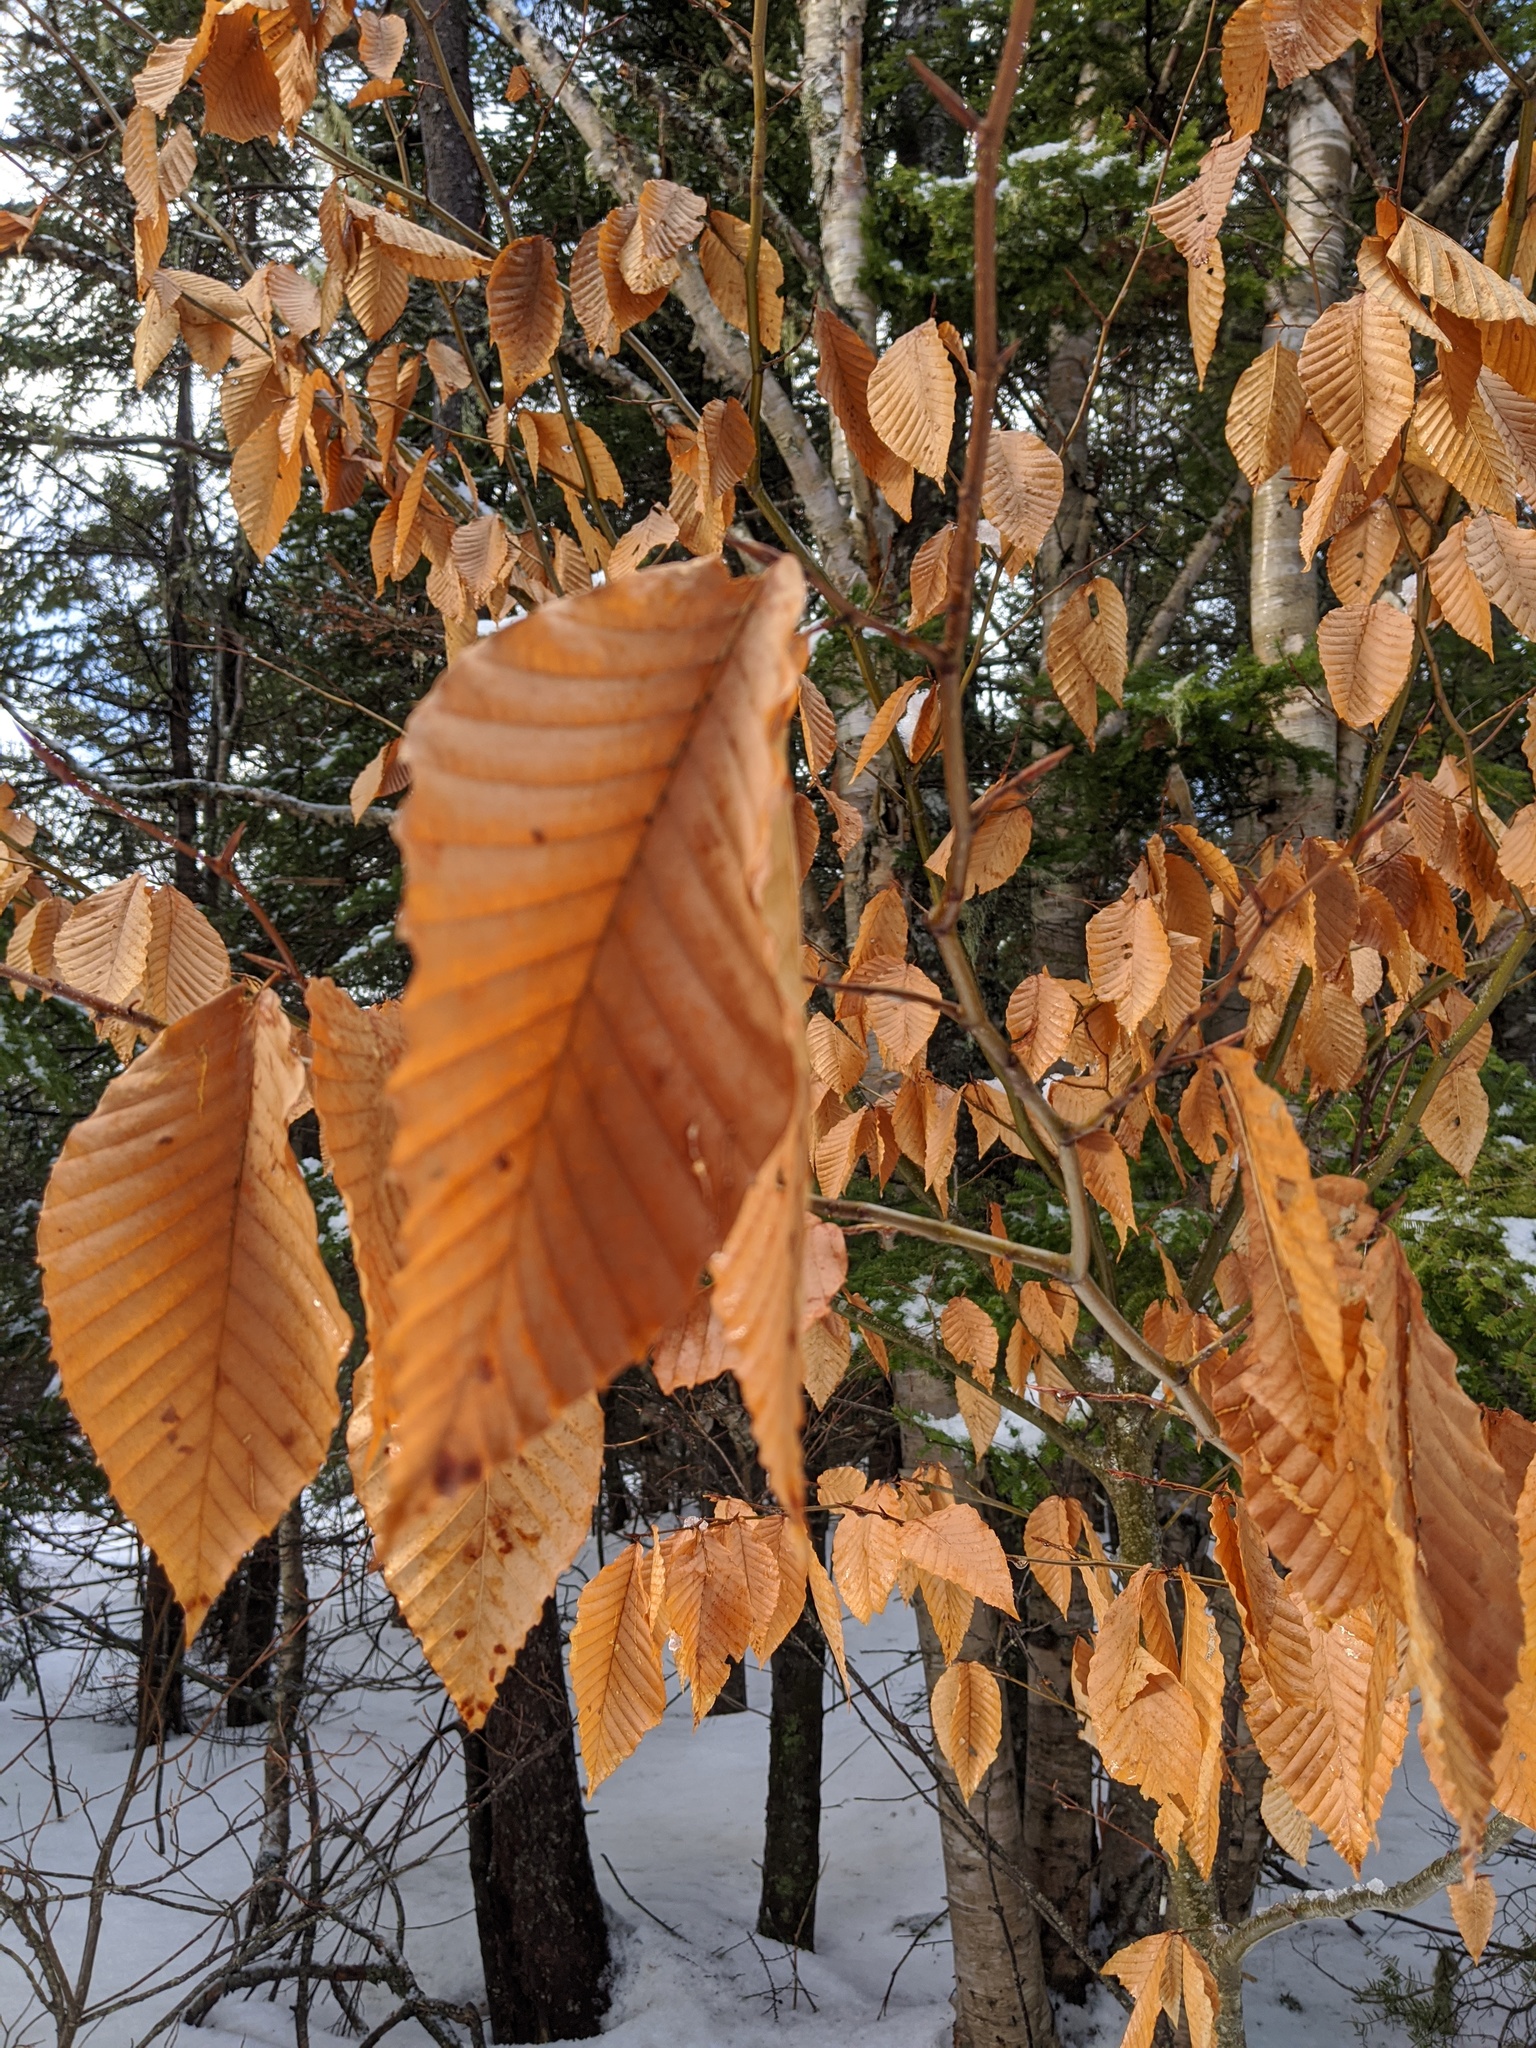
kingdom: Plantae
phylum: Tracheophyta
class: Magnoliopsida
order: Fagales
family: Fagaceae
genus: Fagus
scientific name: Fagus grandifolia
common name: American beech
